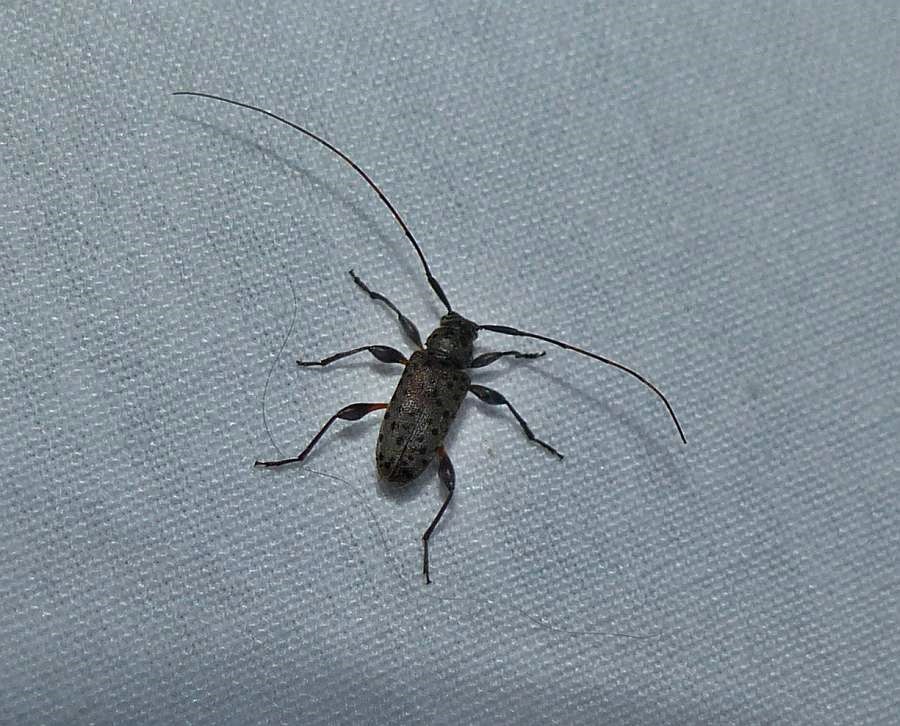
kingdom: Animalia
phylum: Arthropoda
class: Insecta
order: Coleoptera
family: Cerambycidae
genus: Hyperplatys
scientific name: Hyperplatys aspersa
